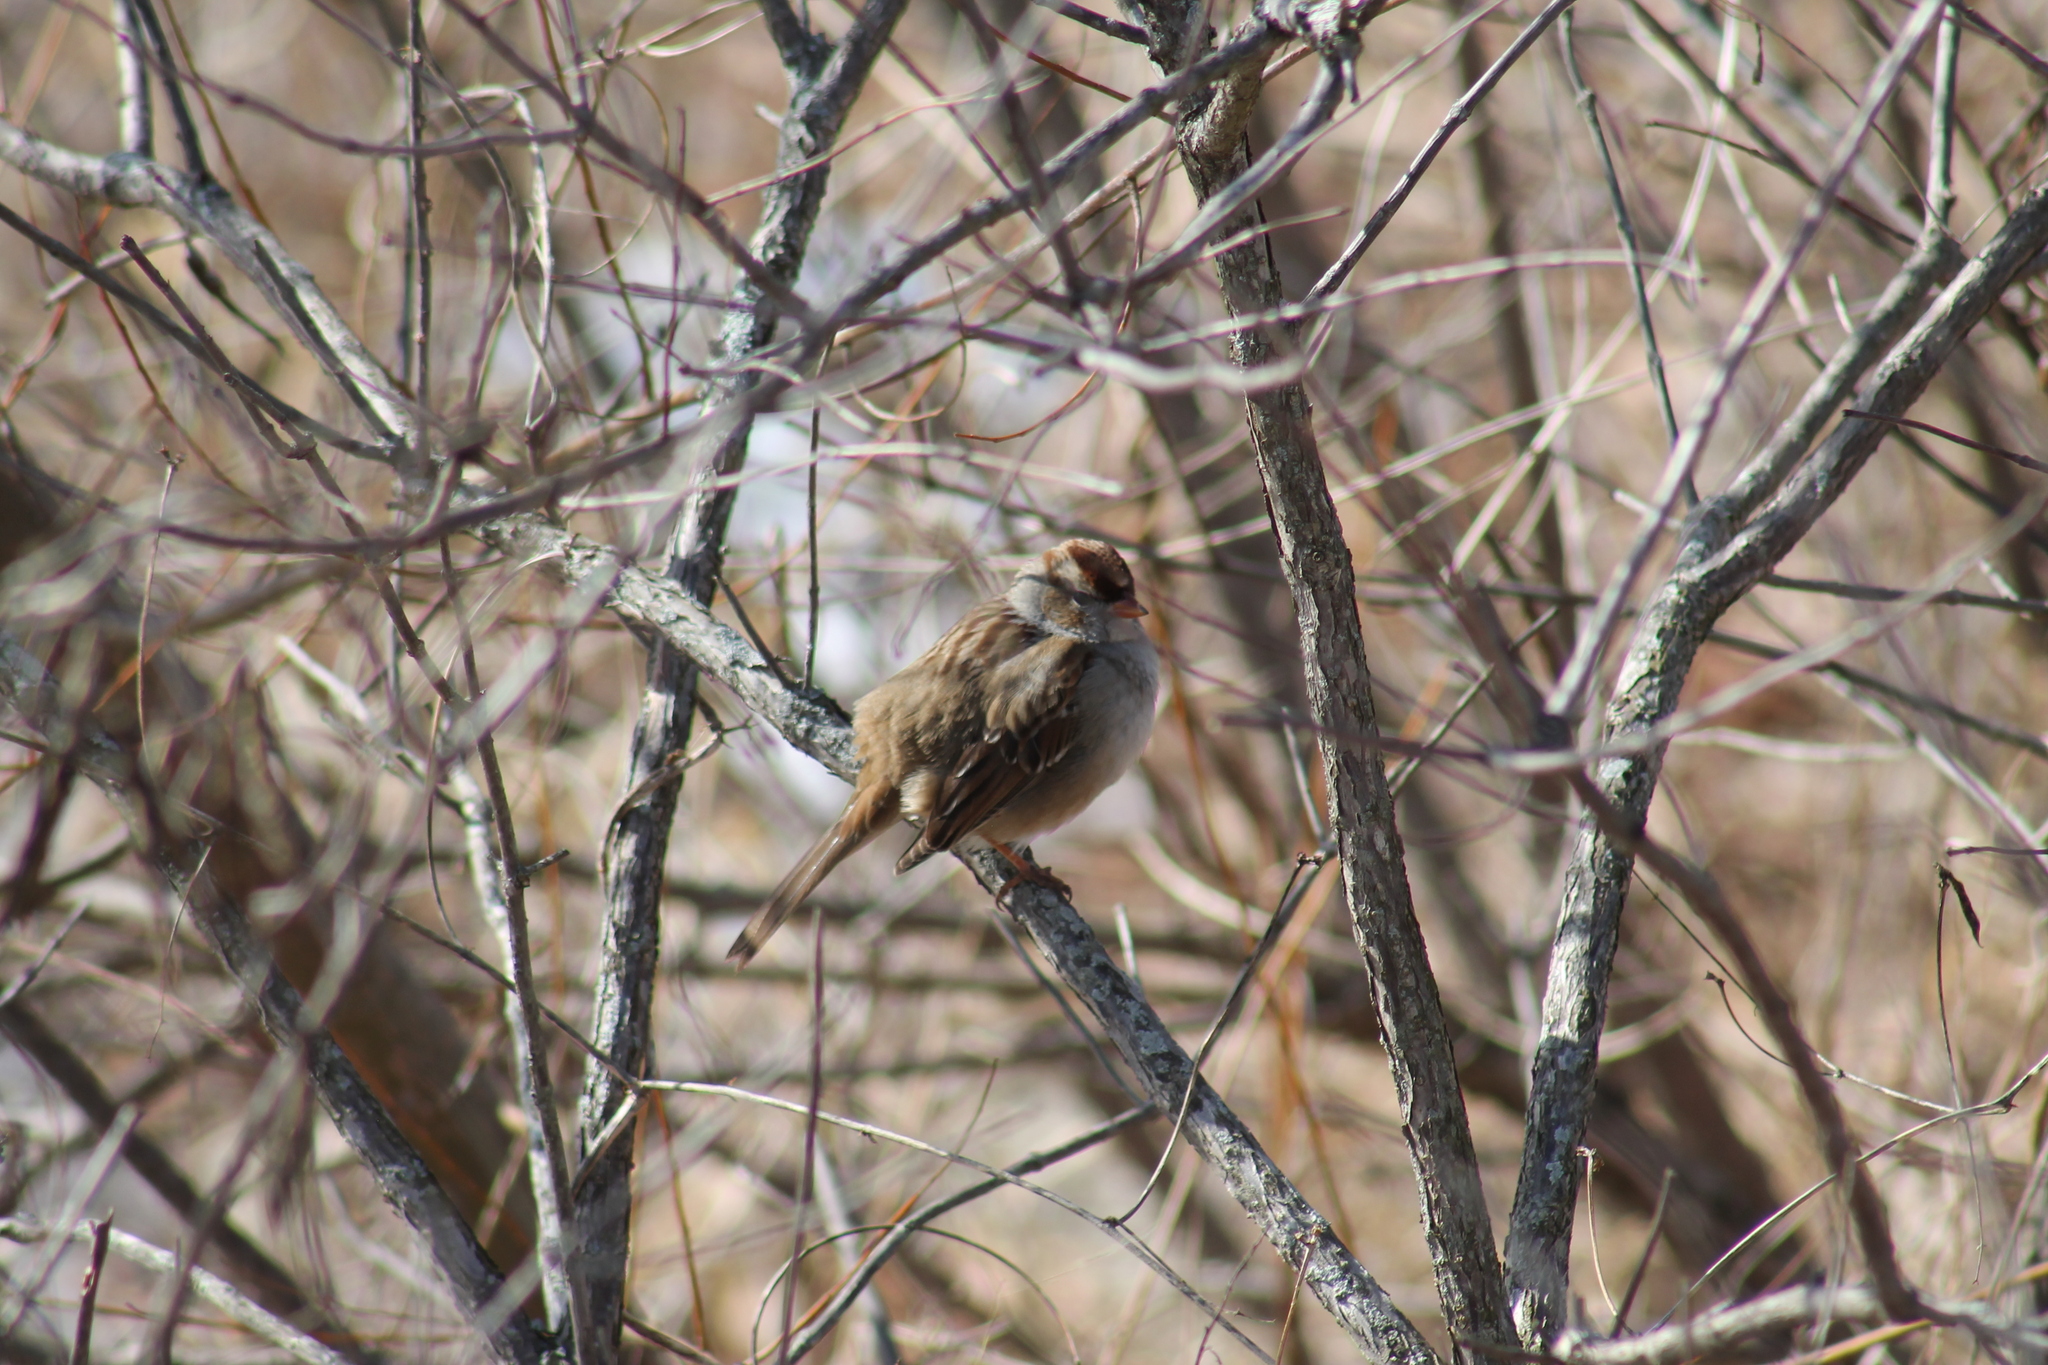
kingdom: Animalia
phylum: Chordata
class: Aves
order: Passeriformes
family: Passerellidae
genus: Zonotrichia
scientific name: Zonotrichia leucophrys
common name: White-crowned sparrow
